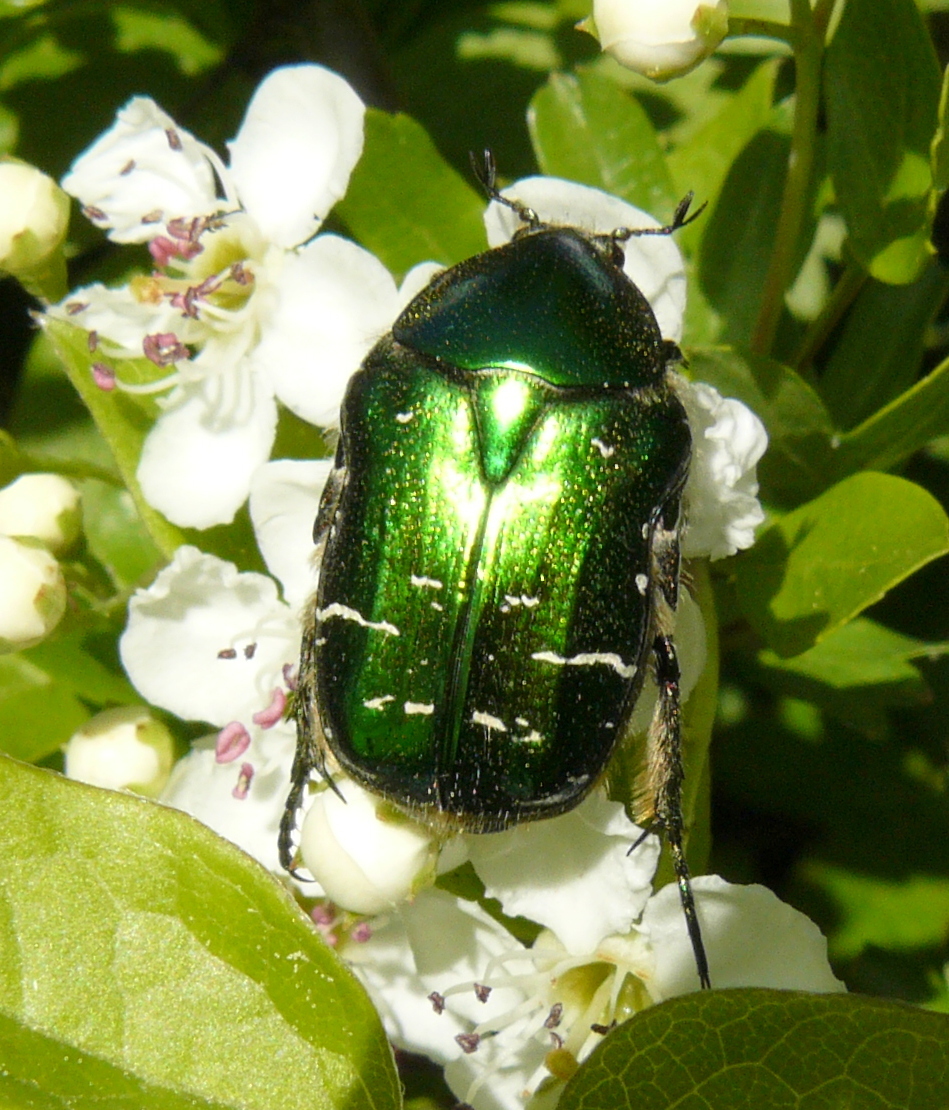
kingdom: Animalia
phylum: Arthropoda
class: Insecta
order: Coleoptera
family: Scarabaeidae
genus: Cetonia
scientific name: Cetonia aurata
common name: Rose chafer
